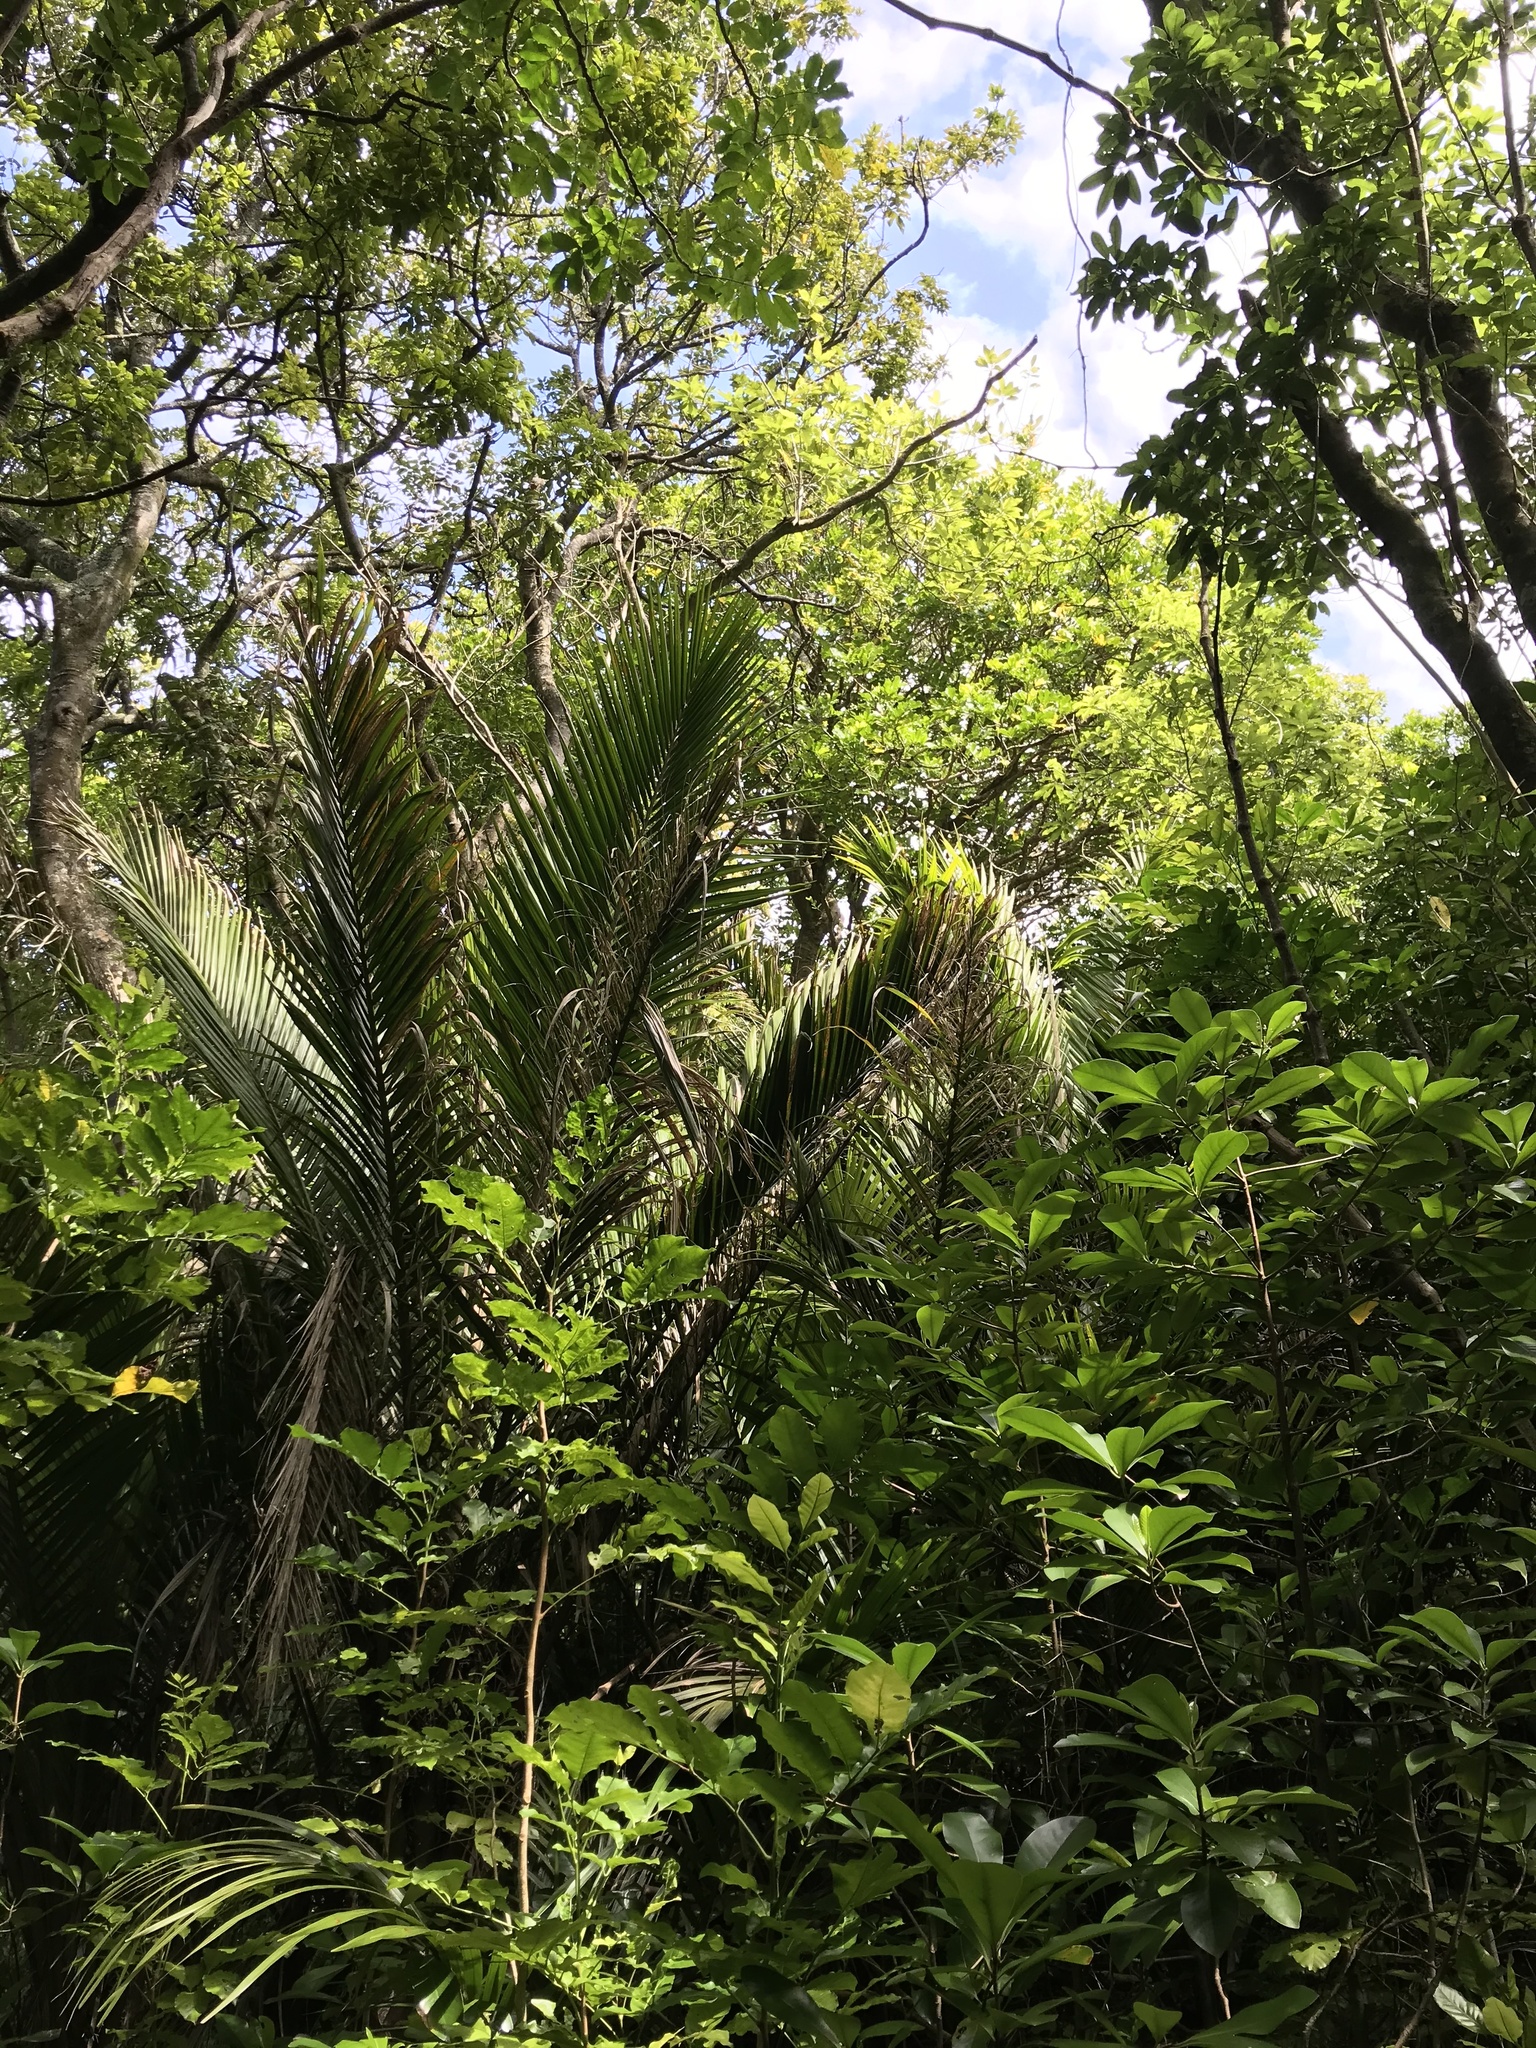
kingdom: Plantae
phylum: Tracheophyta
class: Liliopsida
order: Arecales
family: Arecaceae
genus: Rhopalostylis
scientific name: Rhopalostylis sapida
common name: Feather-duster palm
